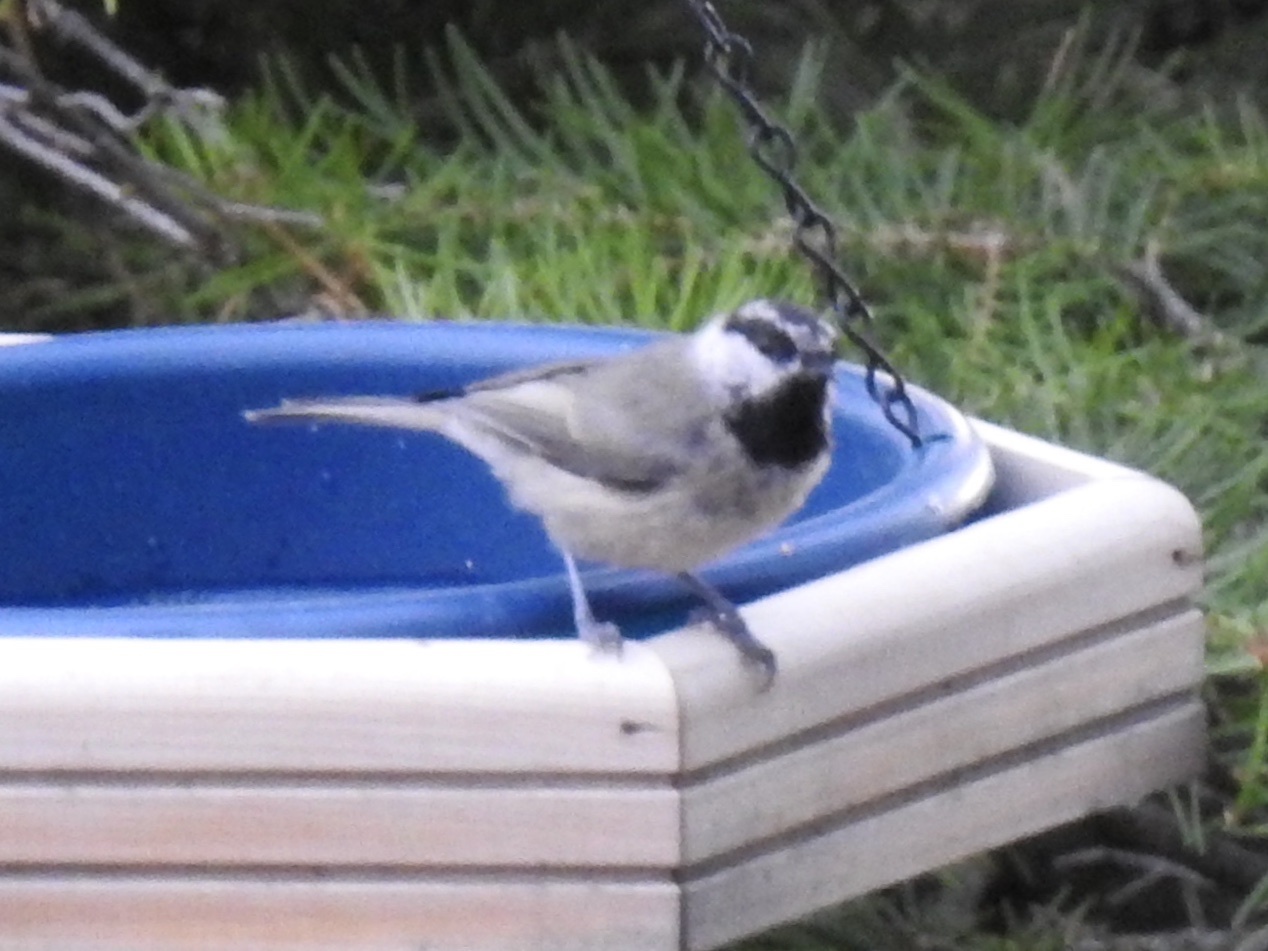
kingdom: Animalia
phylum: Chordata
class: Aves
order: Passeriformes
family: Paridae
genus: Poecile
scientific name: Poecile gambeli
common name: Mountain chickadee
